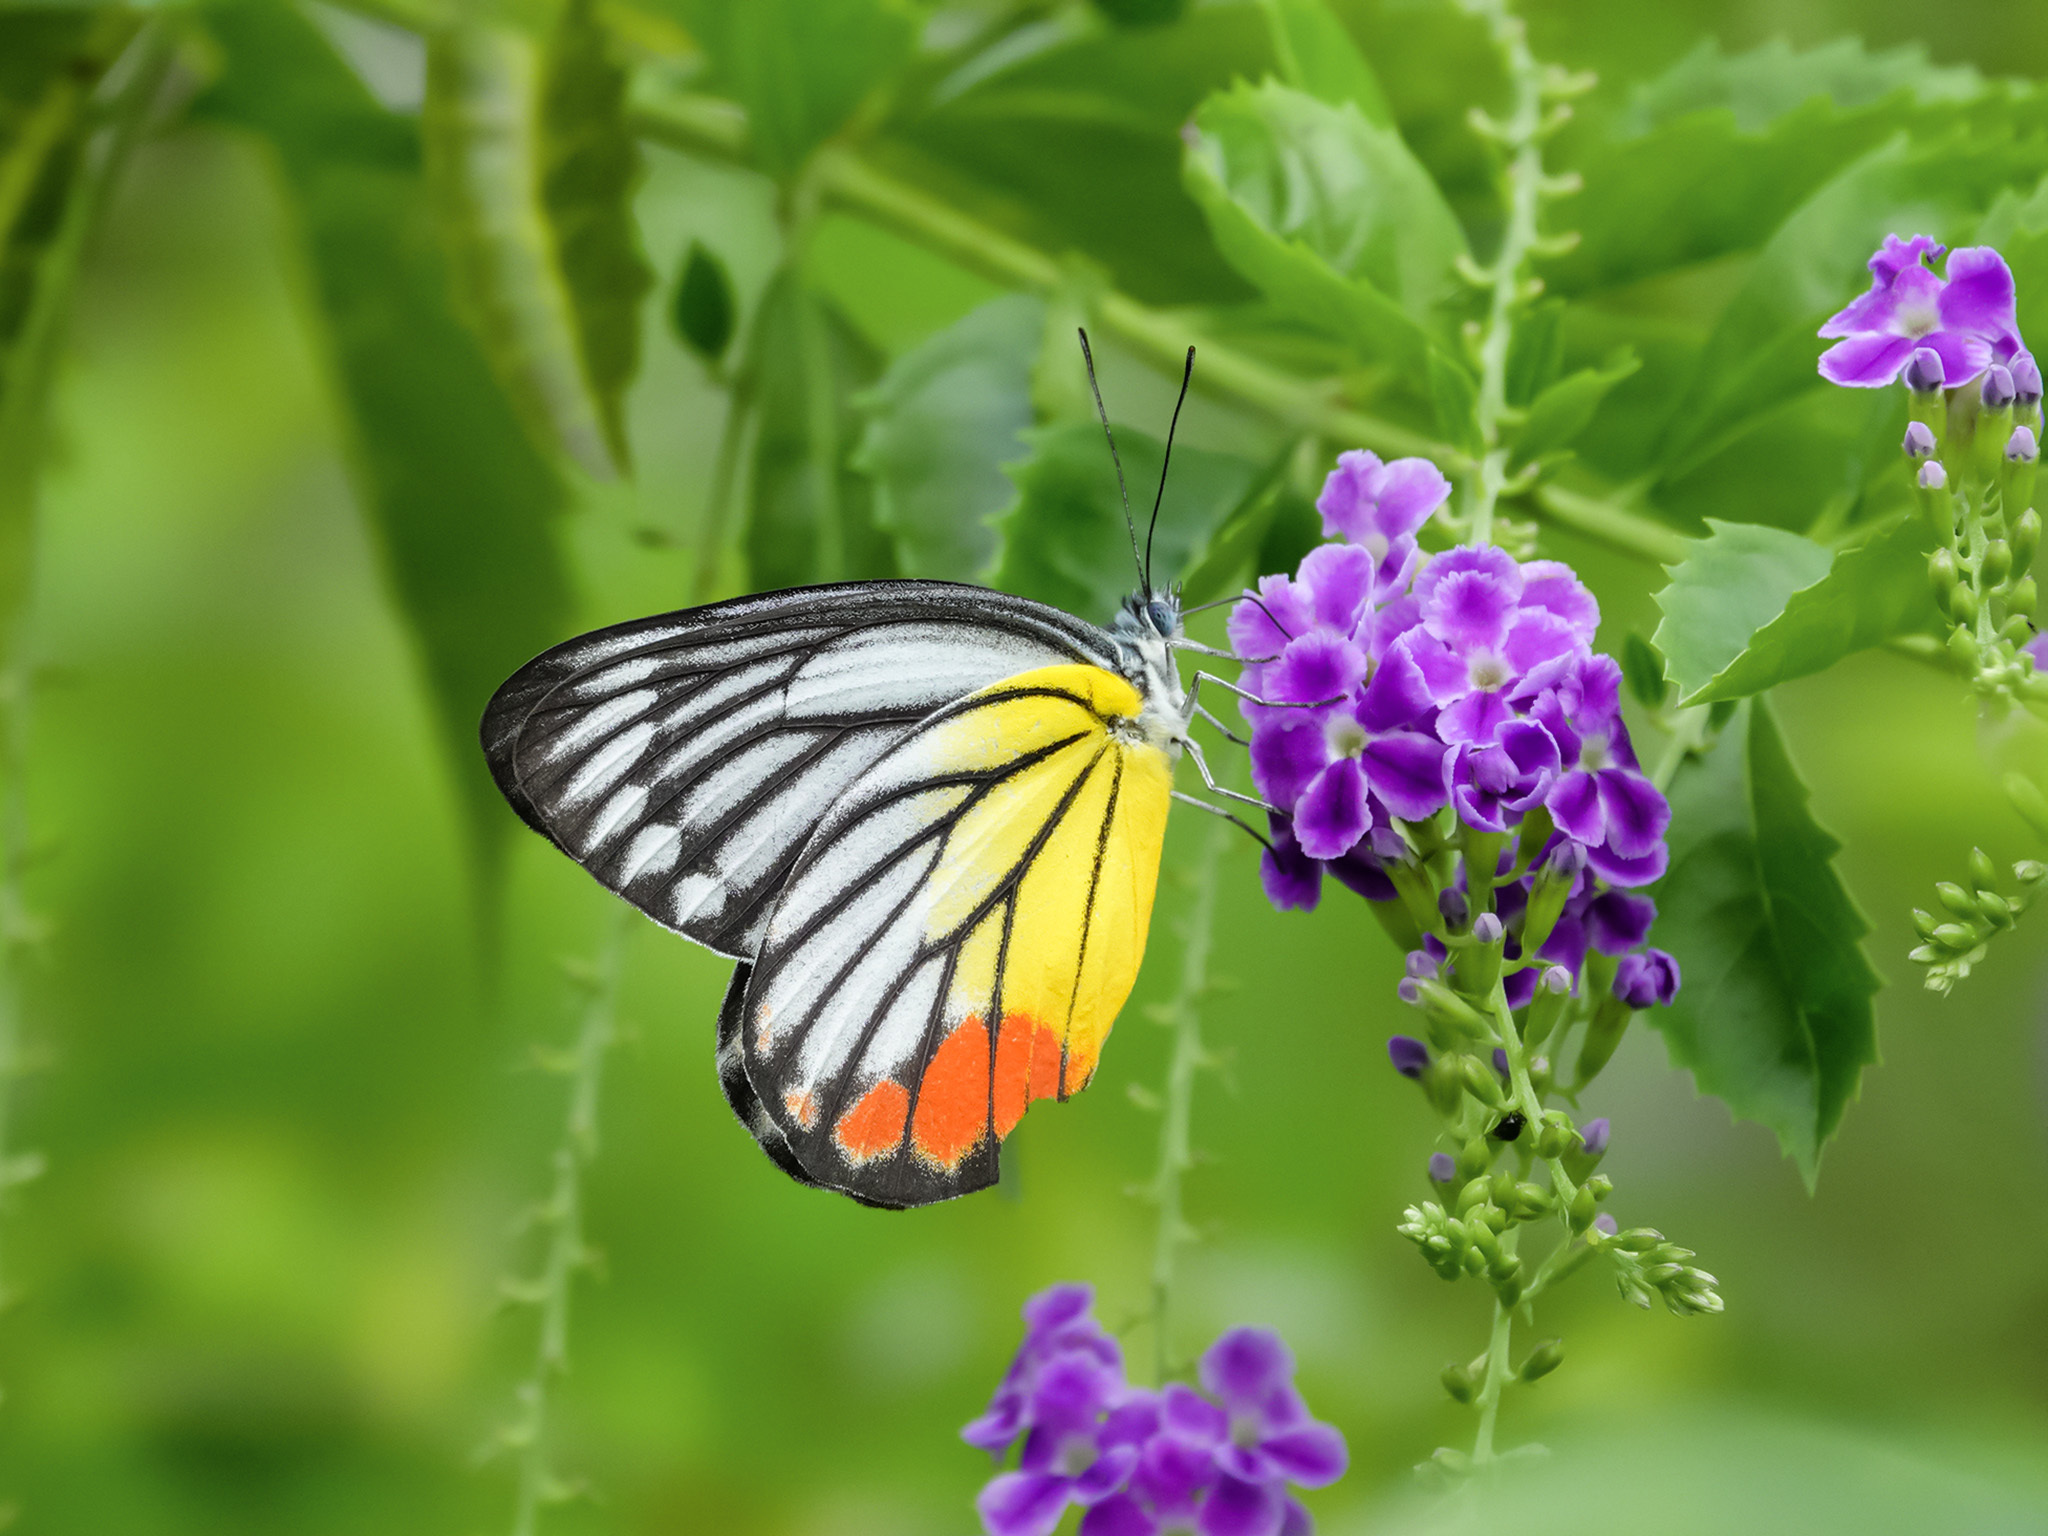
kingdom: Animalia
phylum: Arthropoda
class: Insecta
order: Lepidoptera
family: Pieridae
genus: Delias
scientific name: Delias hyparete
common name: Painted jezebel
